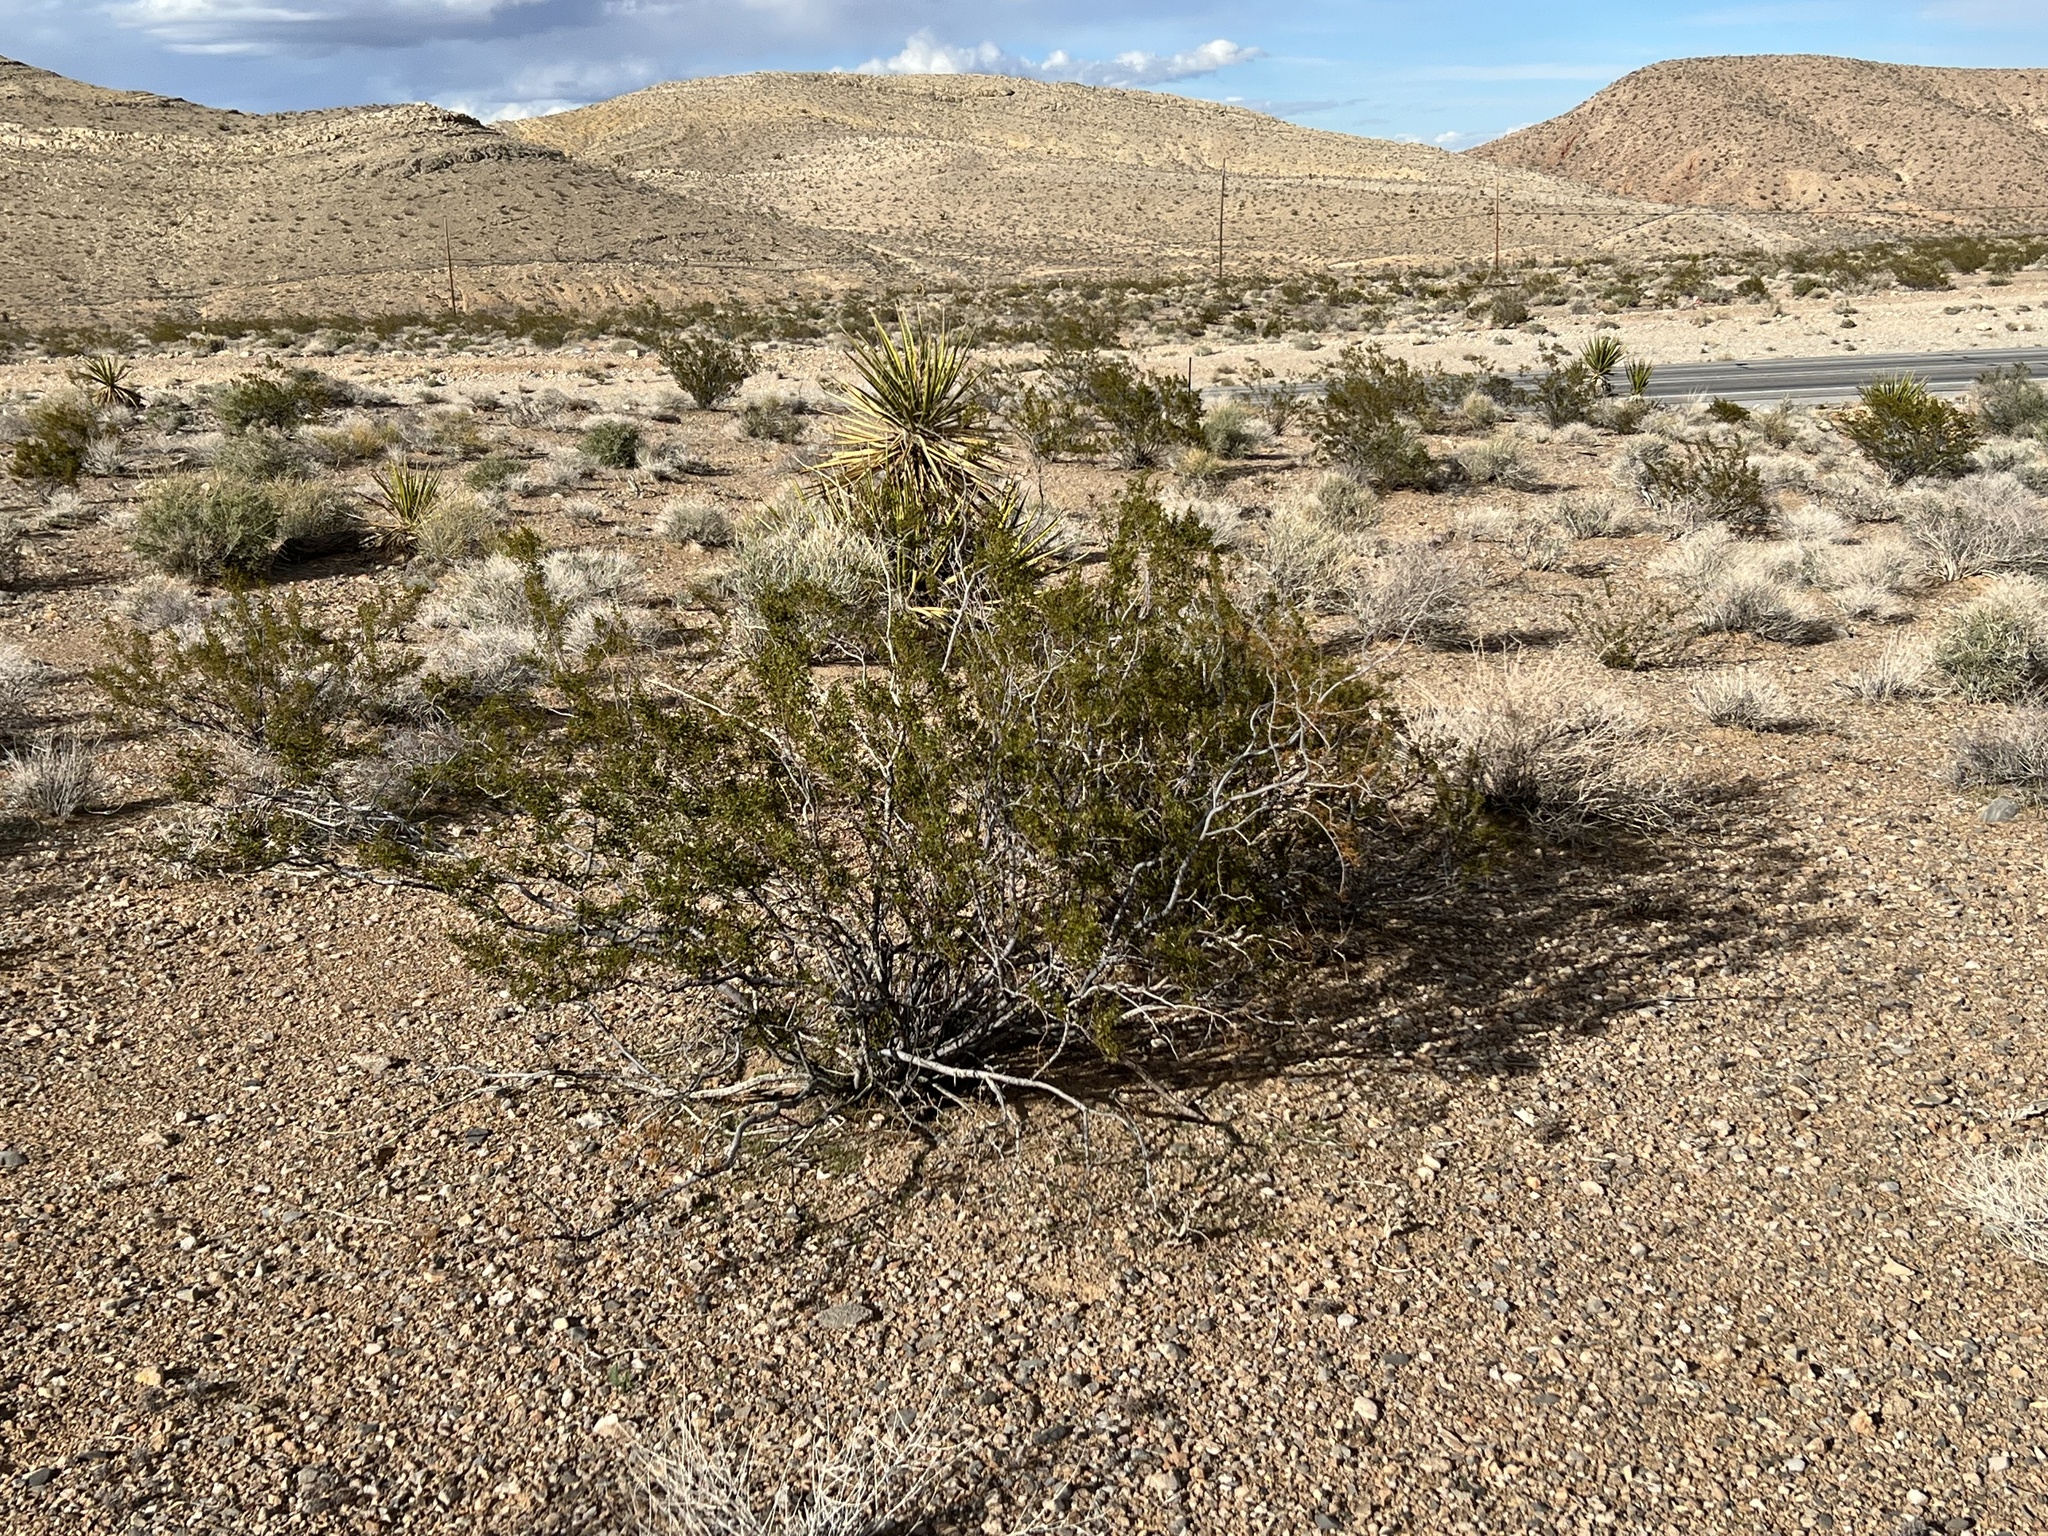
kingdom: Plantae
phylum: Tracheophyta
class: Magnoliopsida
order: Zygophyllales
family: Zygophyllaceae
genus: Larrea
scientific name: Larrea tridentata
